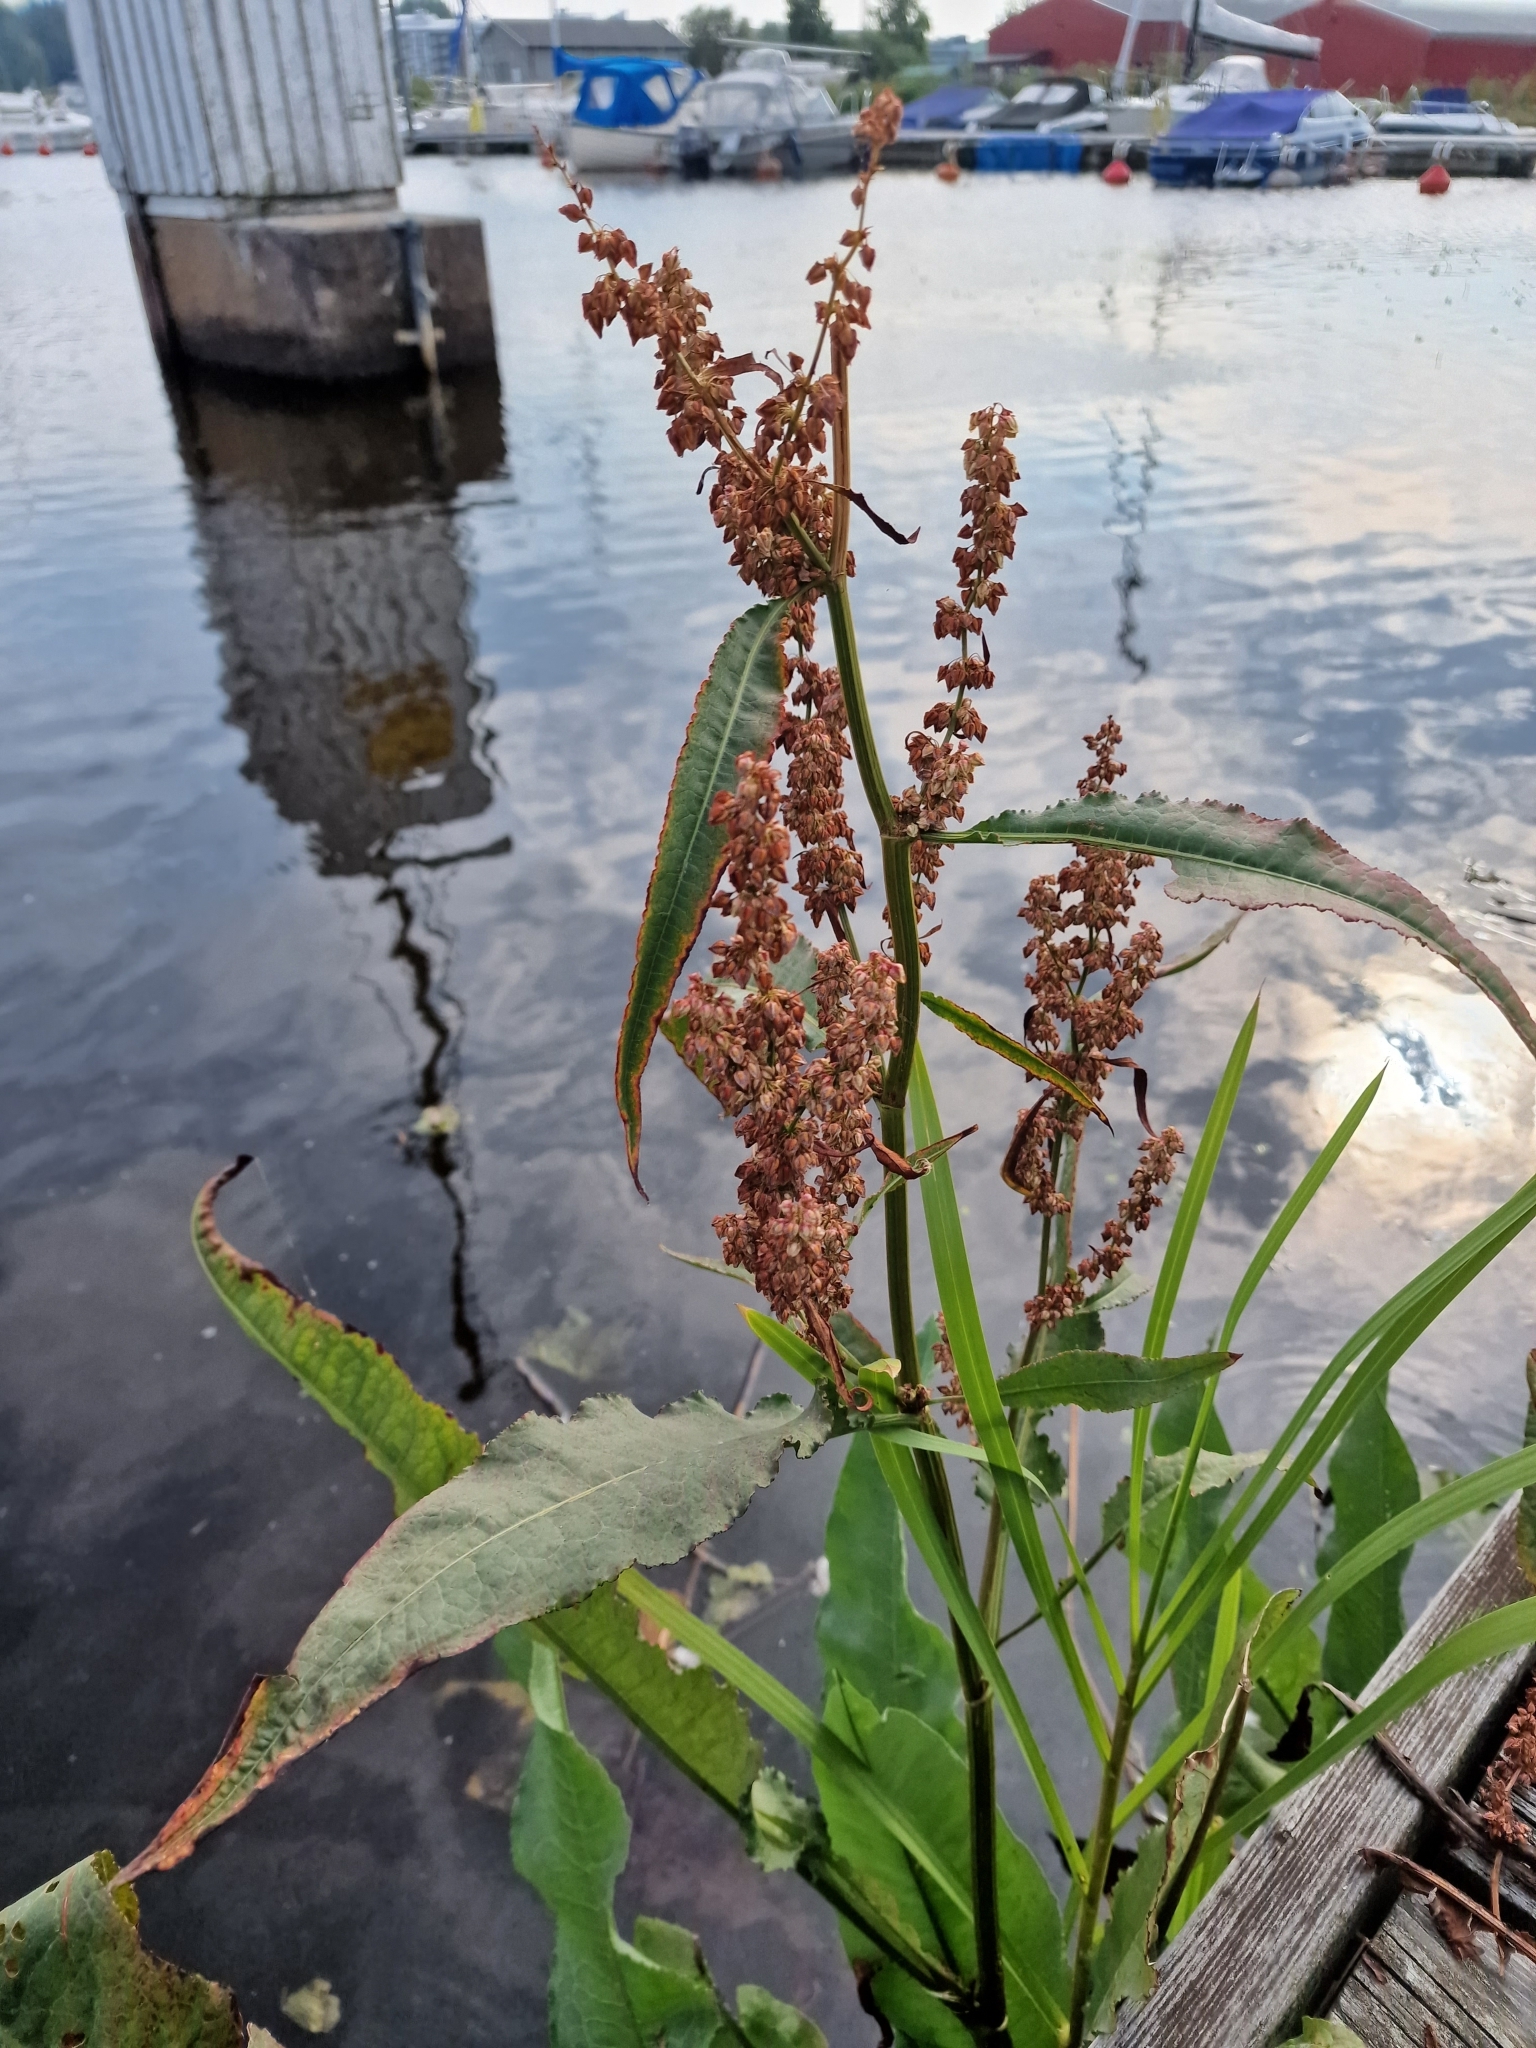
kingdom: Plantae
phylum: Tracheophyta
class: Magnoliopsida
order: Caryophyllales
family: Polygonaceae
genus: Rumex
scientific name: Rumex hydrolapathum
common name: Water dock
